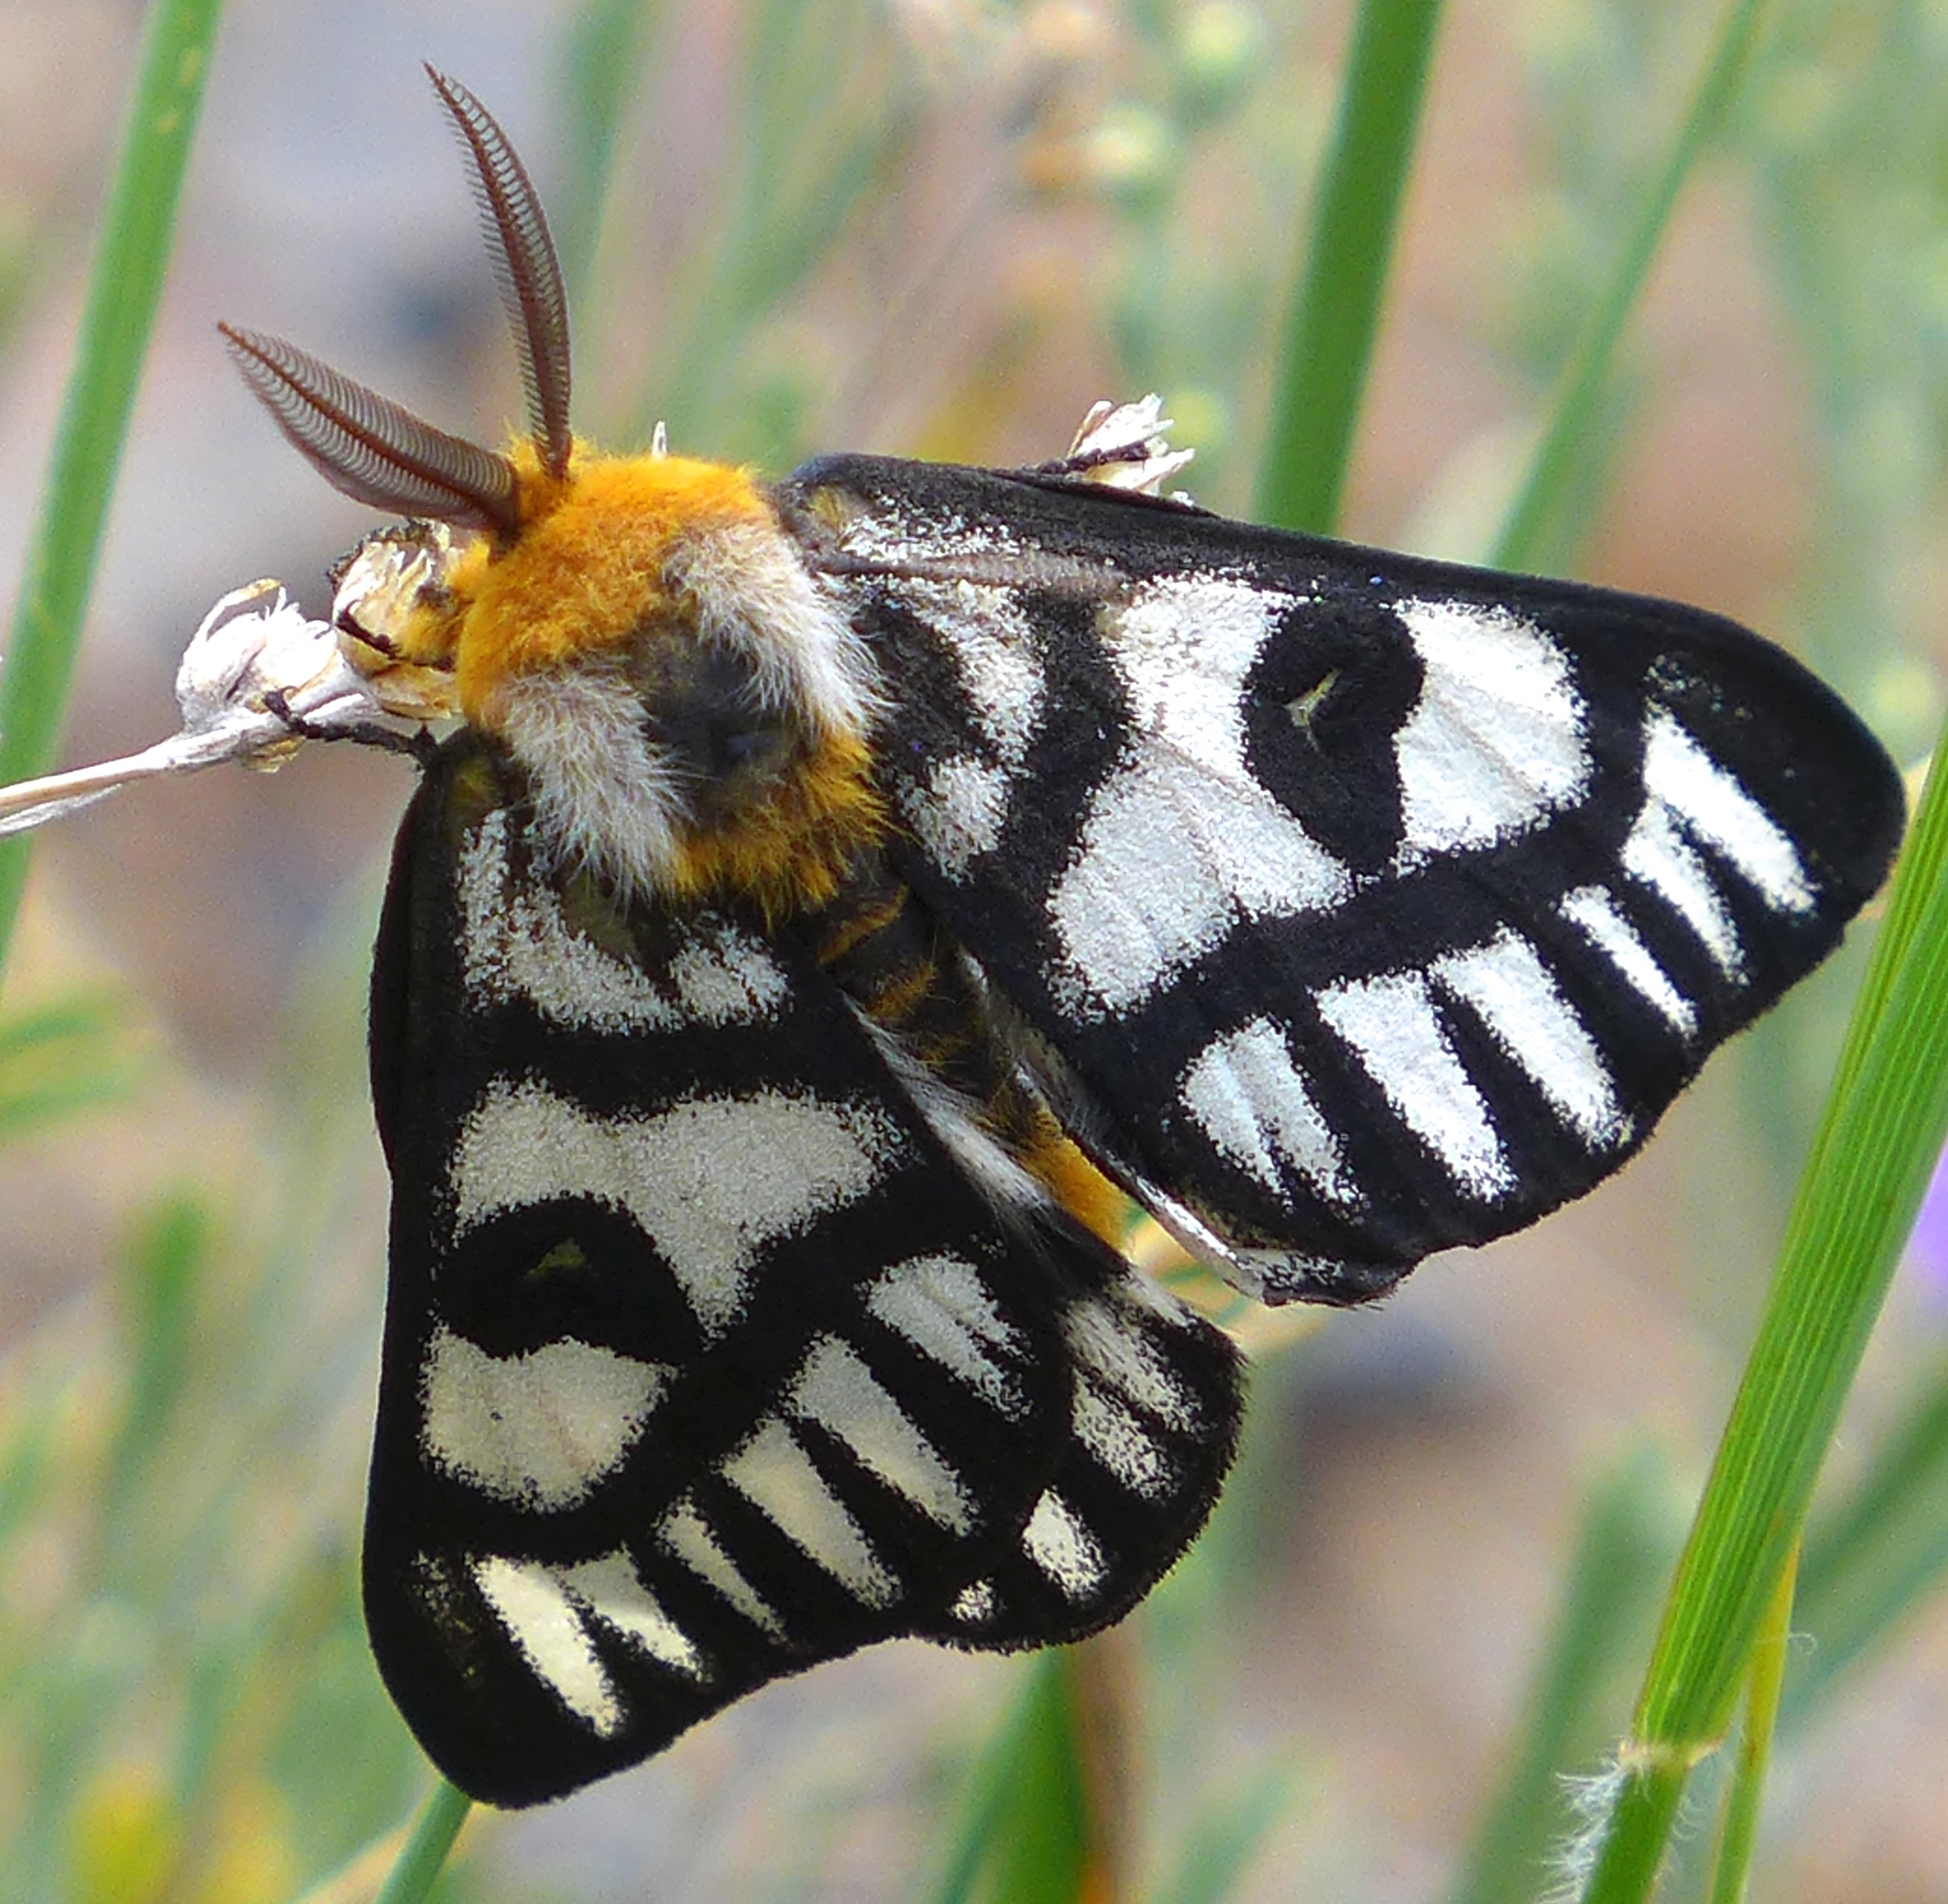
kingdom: Animalia
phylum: Arthropoda
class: Insecta
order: Lepidoptera
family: Saturniidae
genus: Hemileuca
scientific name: Hemileuca hera
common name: Hera sheepmoth
